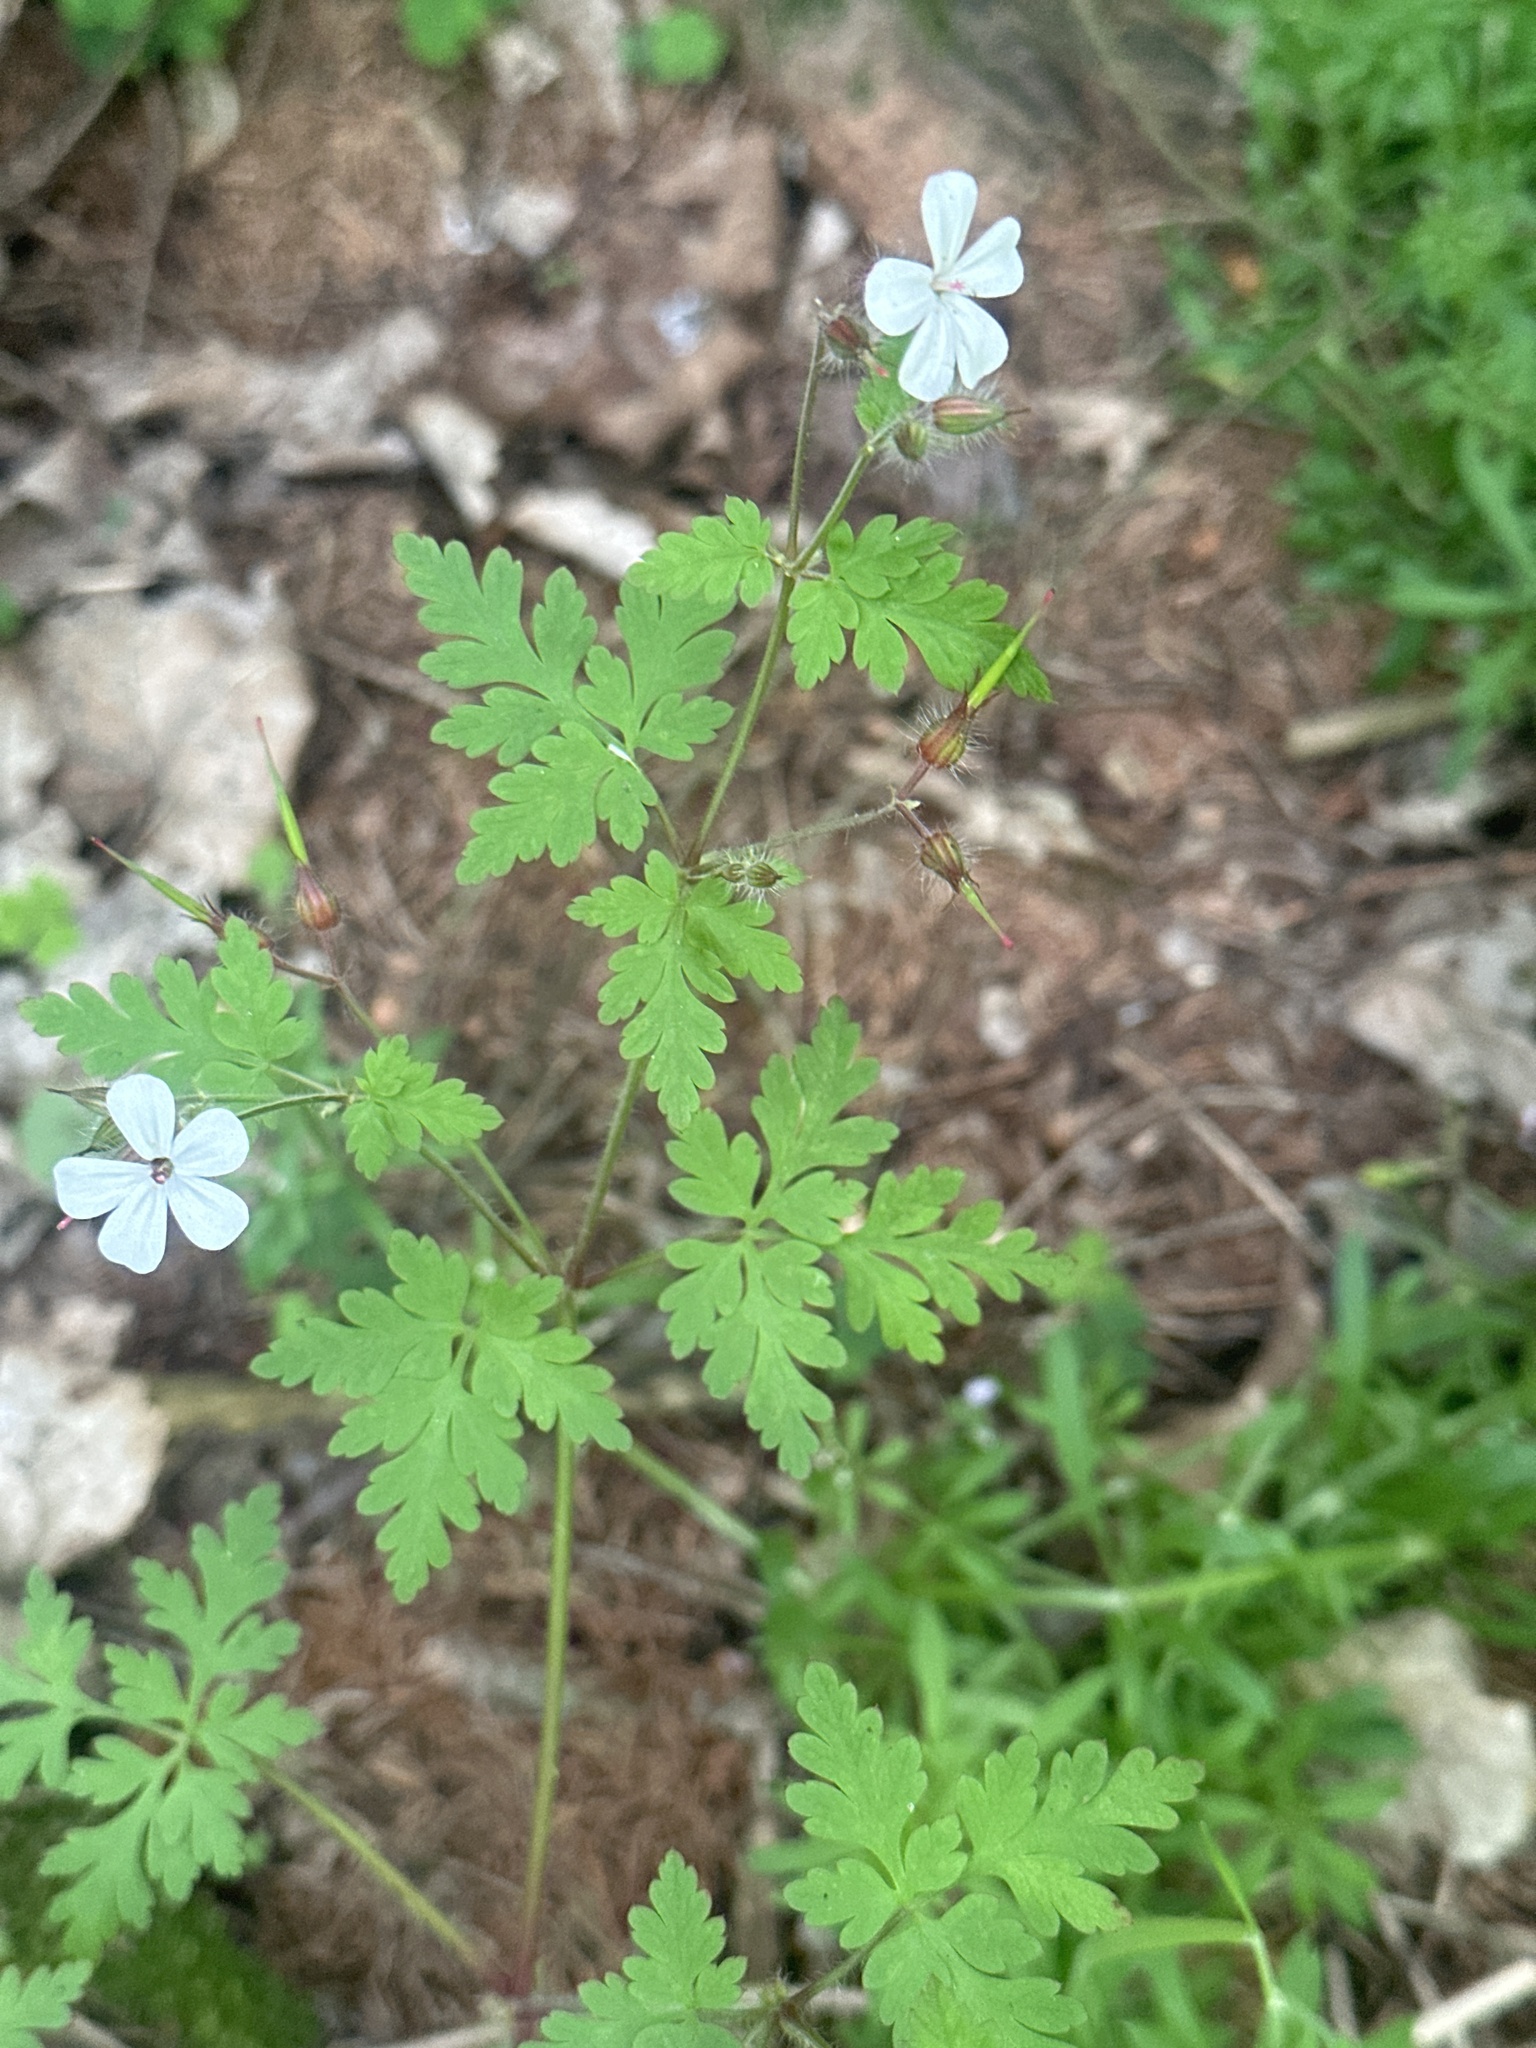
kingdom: Plantae
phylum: Tracheophyta
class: Magnoliopsida
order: Geraniales
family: Geraniaceae
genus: Geranium
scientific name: Geranium robertianum
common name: Herb-robert
